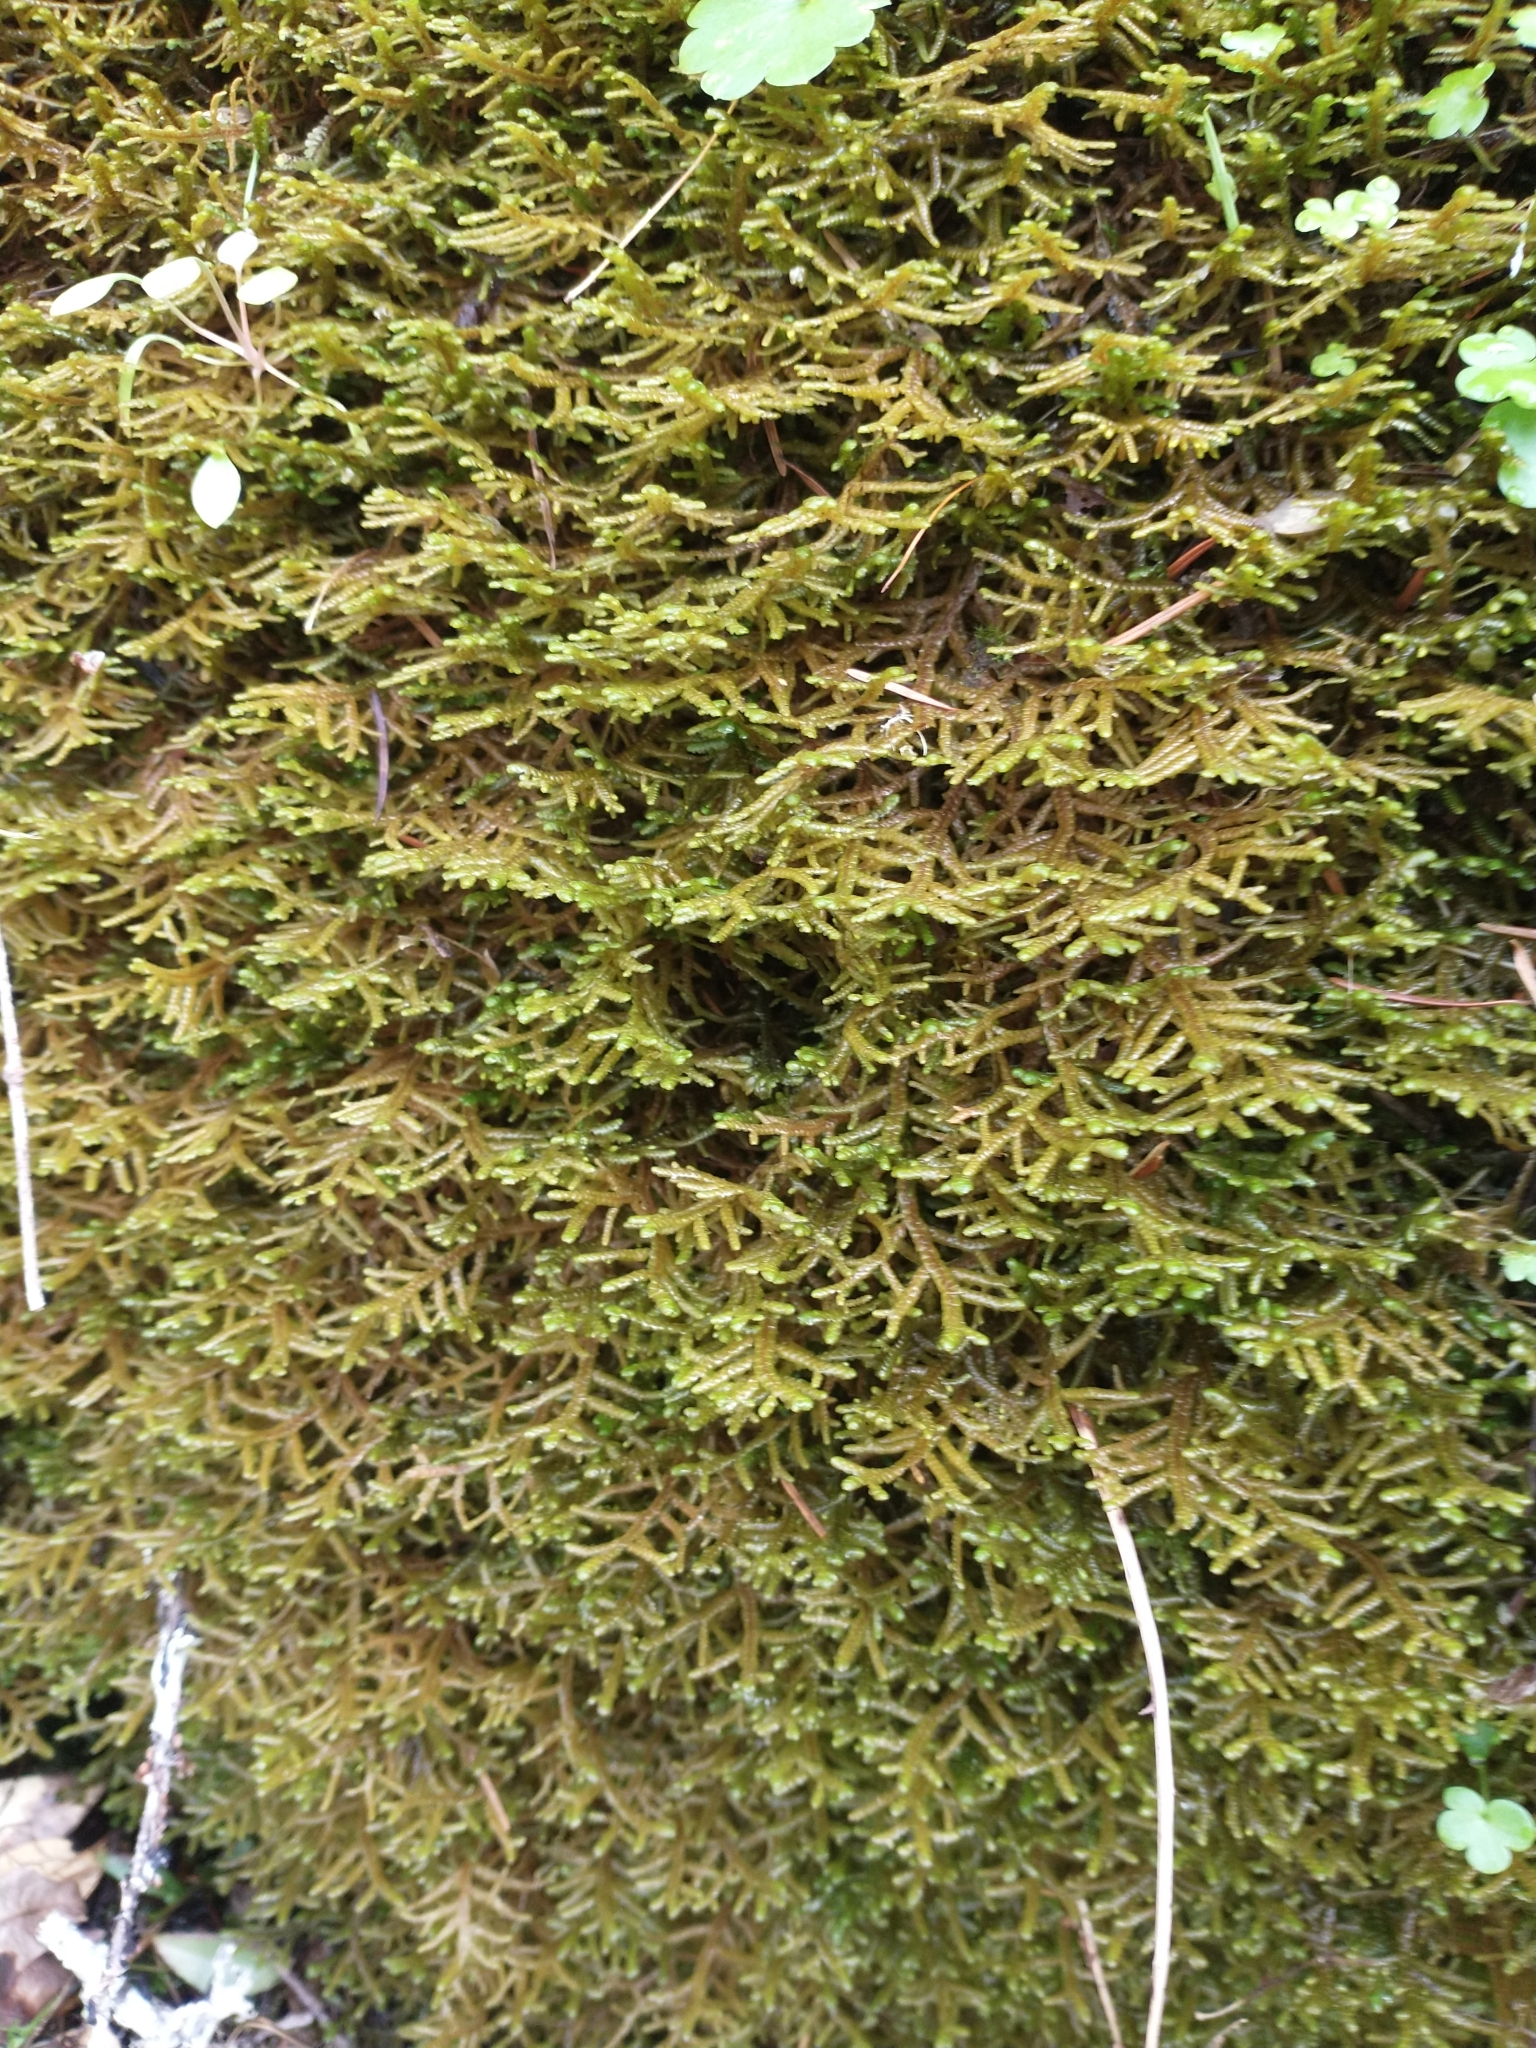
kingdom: Plantae
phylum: Marchantiophyta
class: Jungermanniopsida
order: Porellales
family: Porellaceae
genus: Porella
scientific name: Porella navicularis
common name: Tree ruffle liverwort
